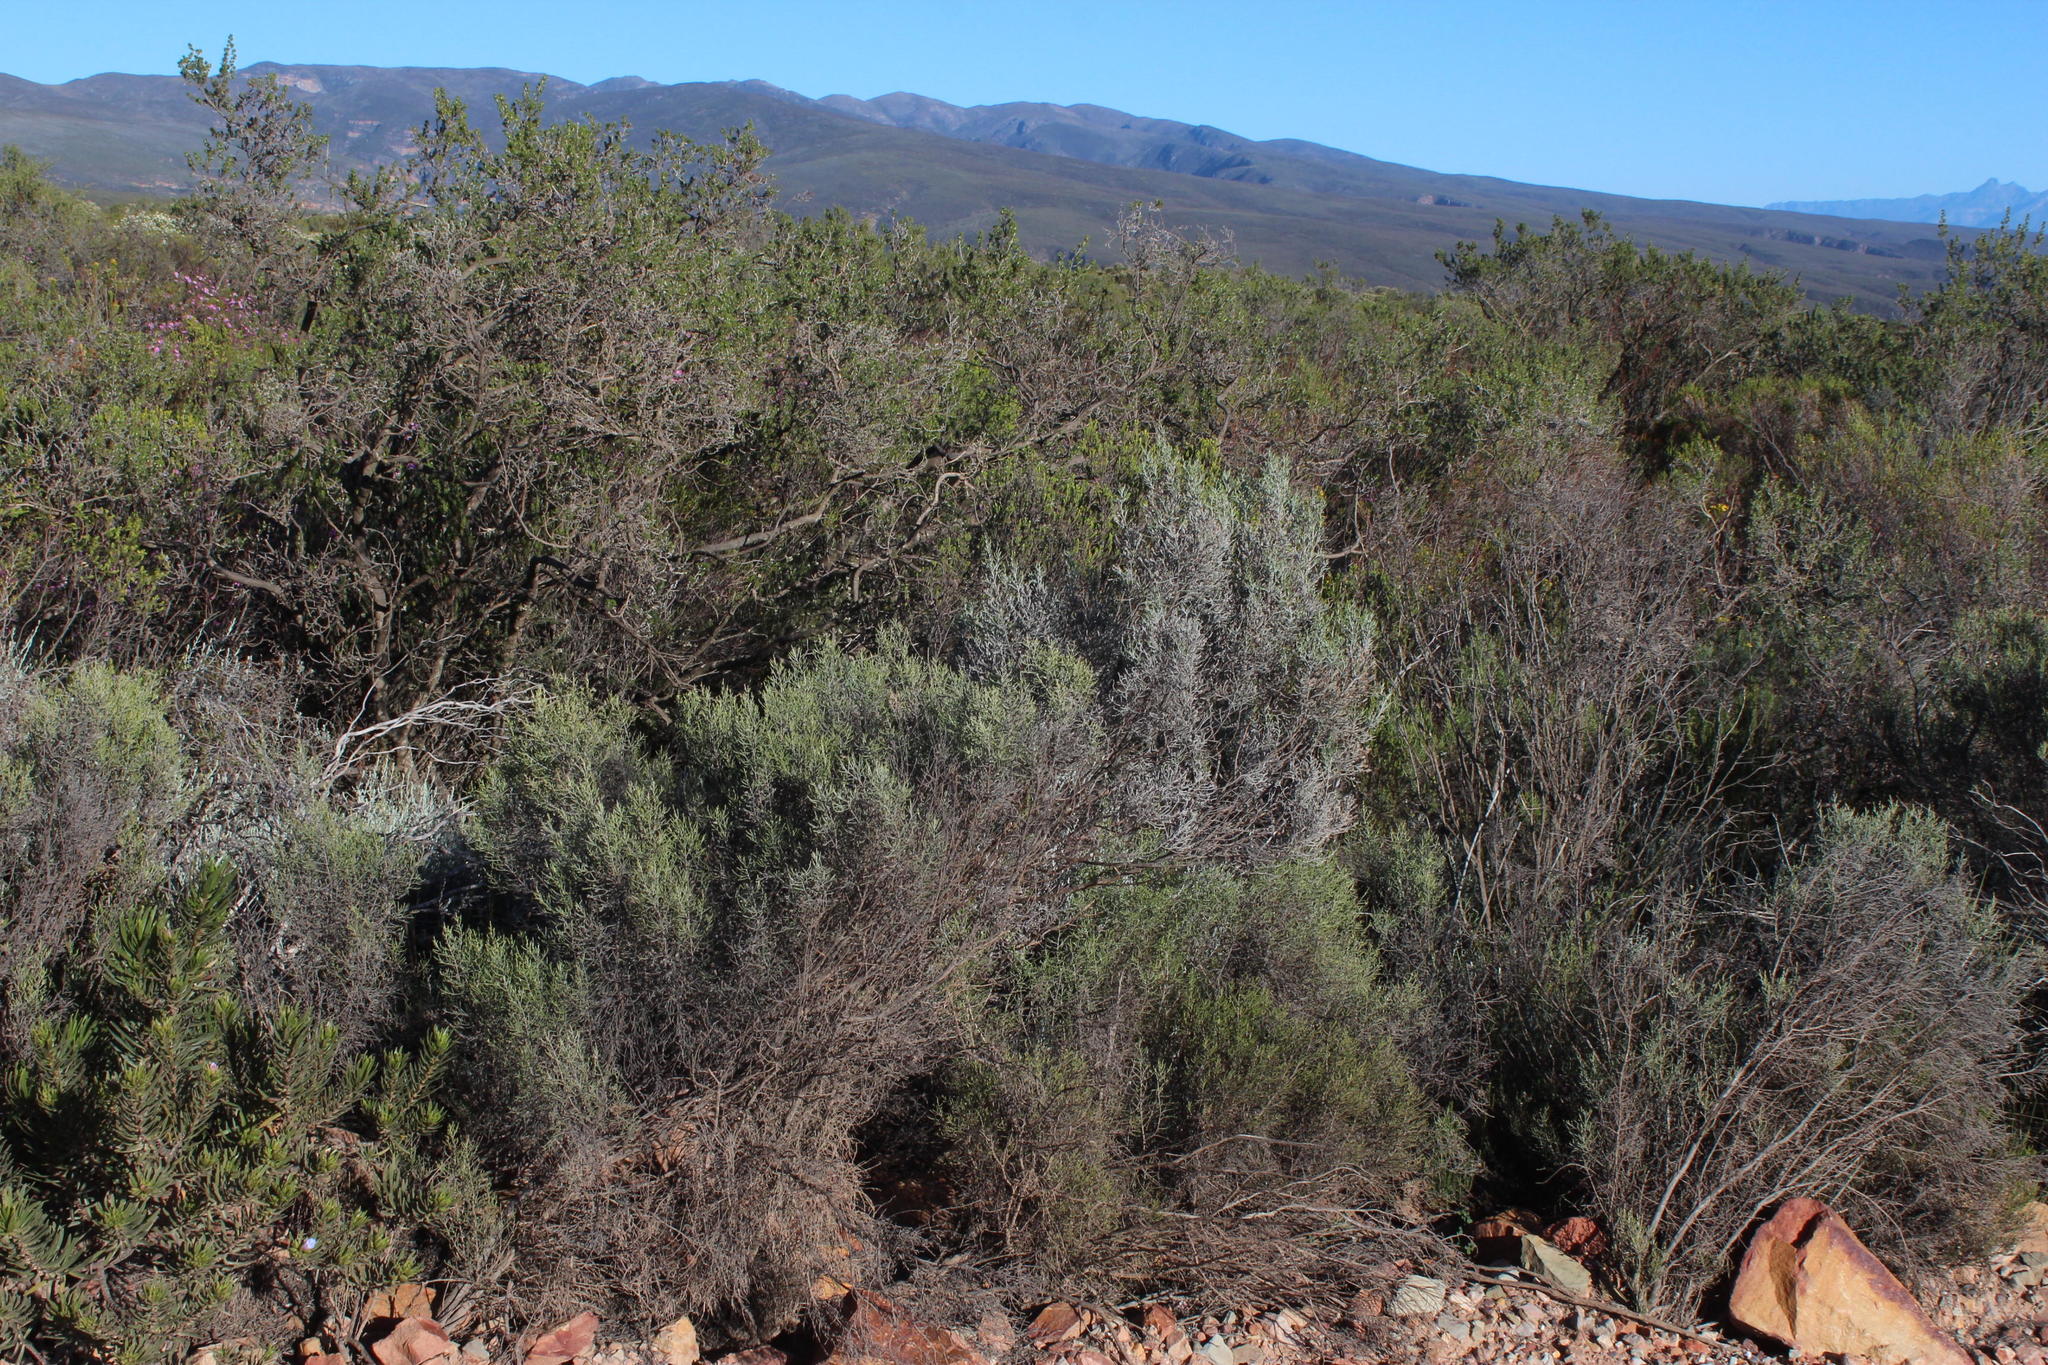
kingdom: Plantae
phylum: Tracheophyta
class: Magnoliopsida
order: Asterales
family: Asteraceae
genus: Dicerothamnus
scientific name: Dicerothamnus rhinocerotis
